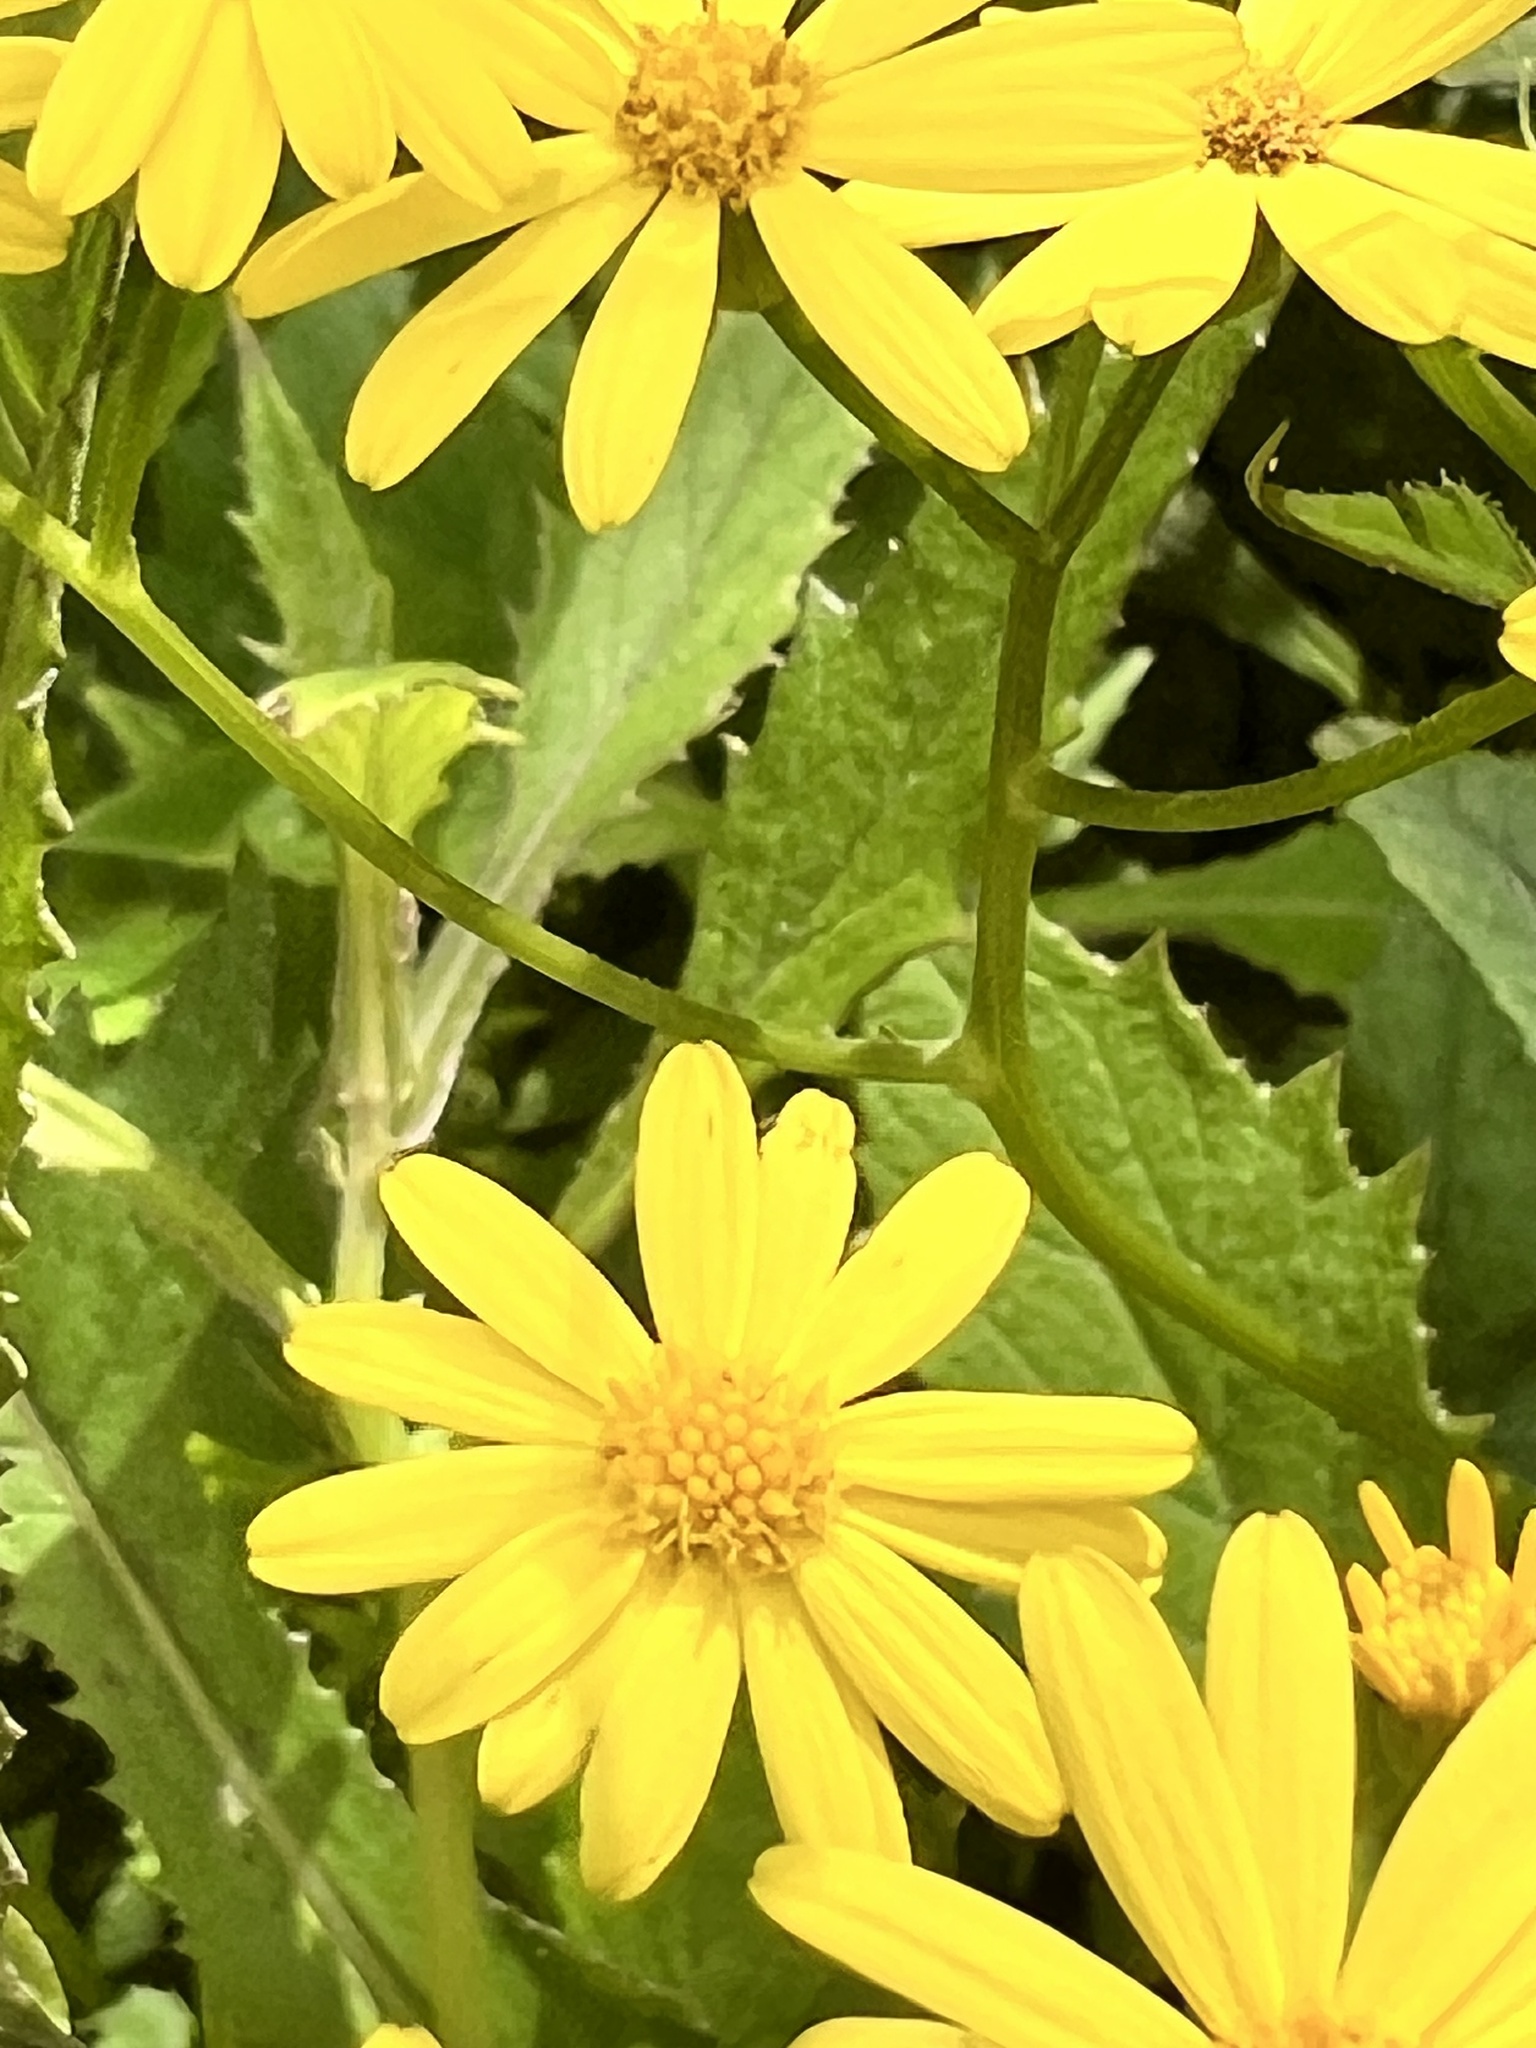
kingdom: Plantae
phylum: Tracheophyta
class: Magnoliopsida
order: Asterales
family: Asteraceae
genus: Senecio
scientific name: Senecio rufiglandulosus
